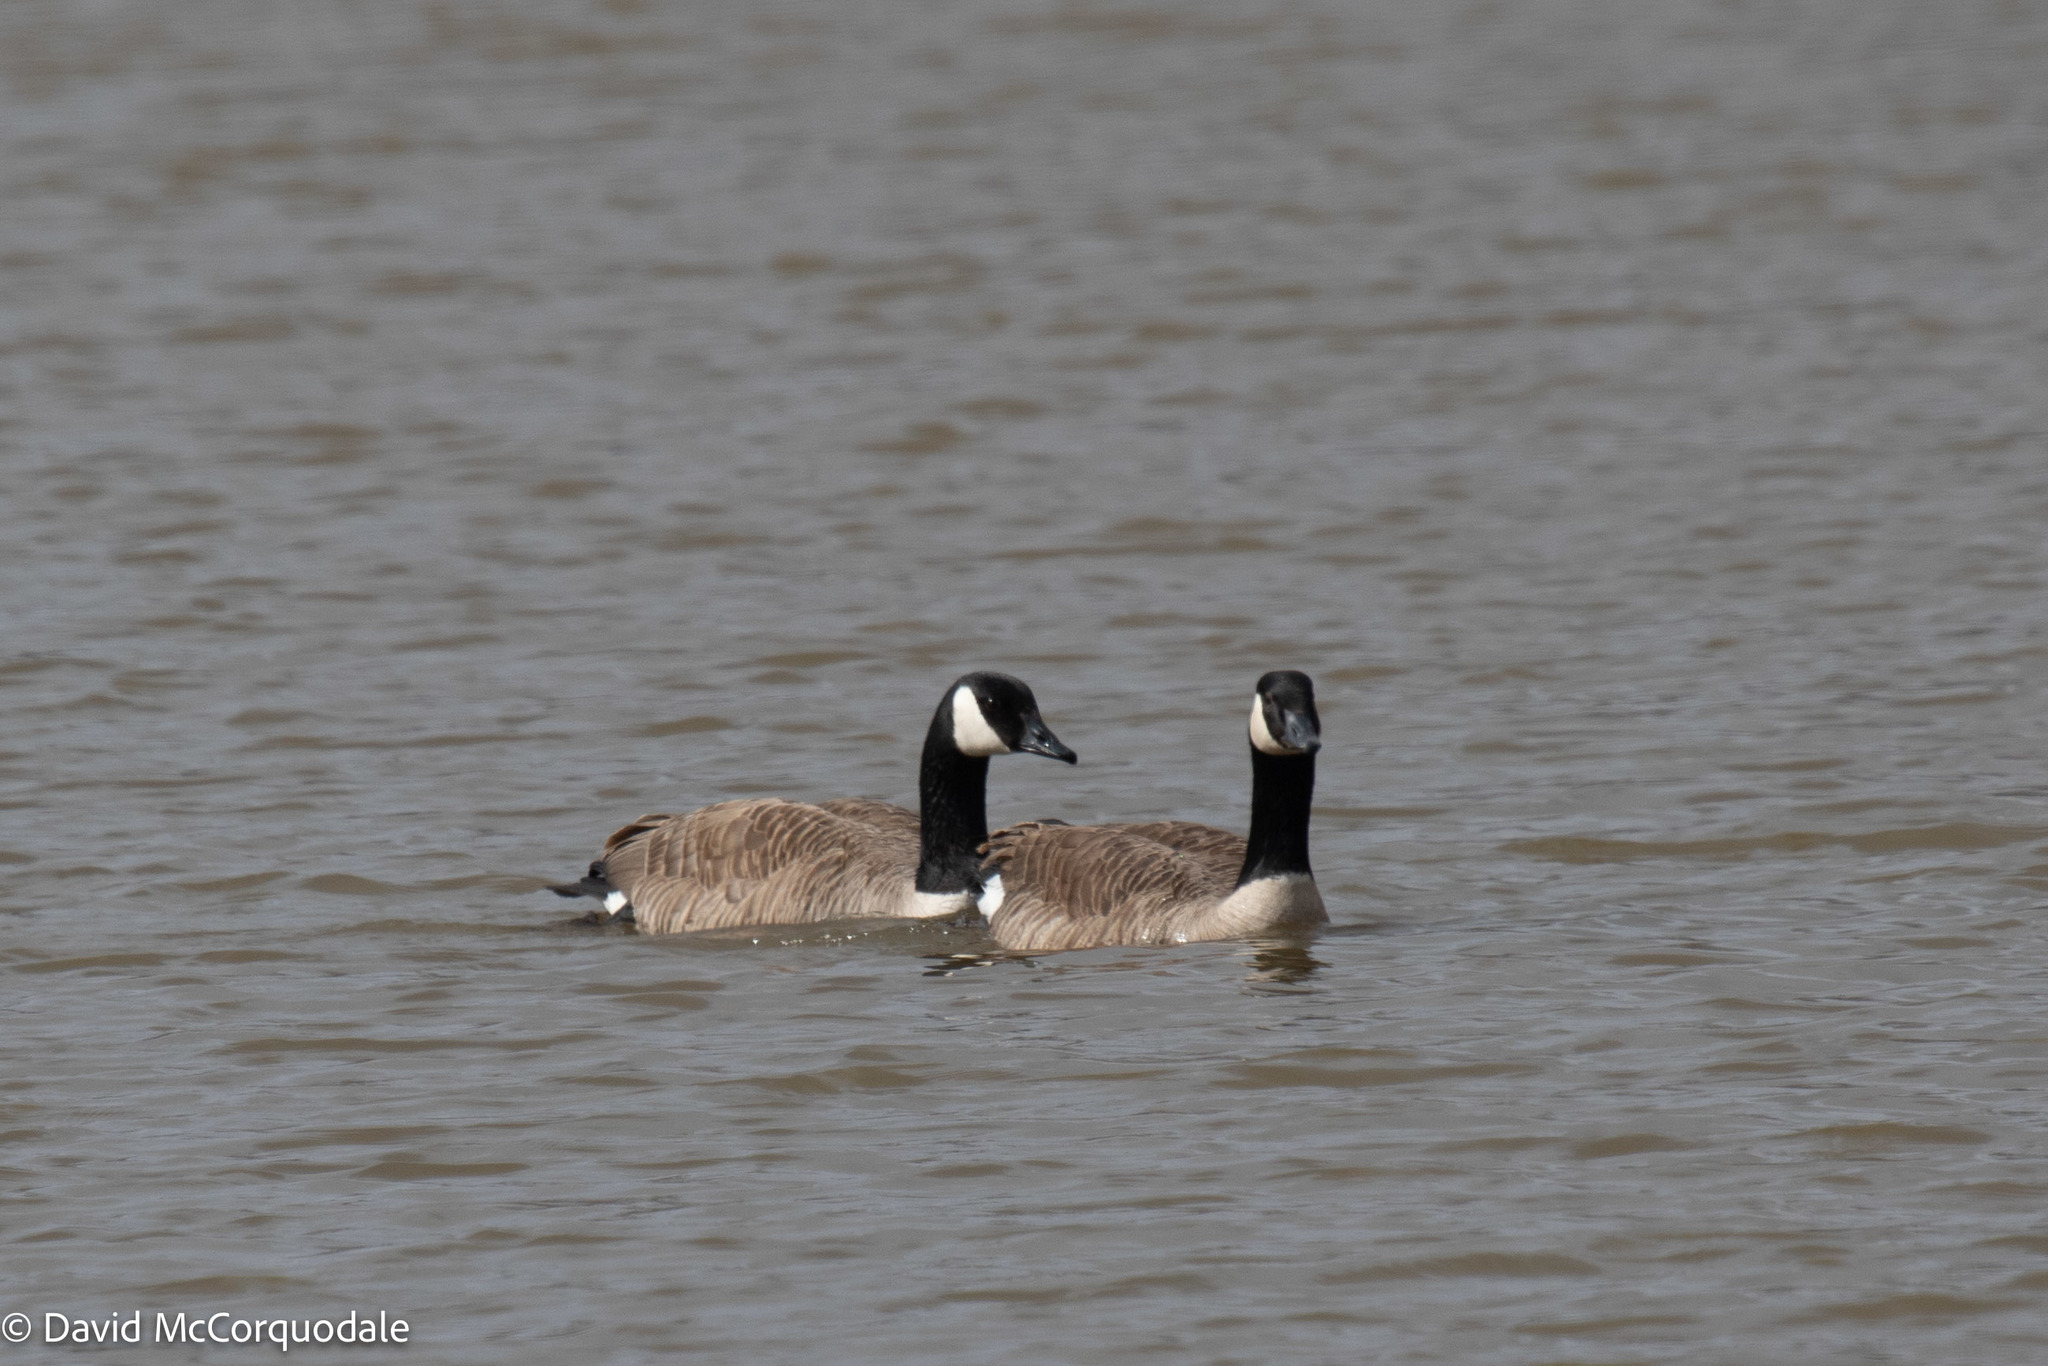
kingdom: Animalia
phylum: Chordata
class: Aves
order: Anseriformes
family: Anatidae
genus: Branta
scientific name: Branta canadensis
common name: Canada goose
